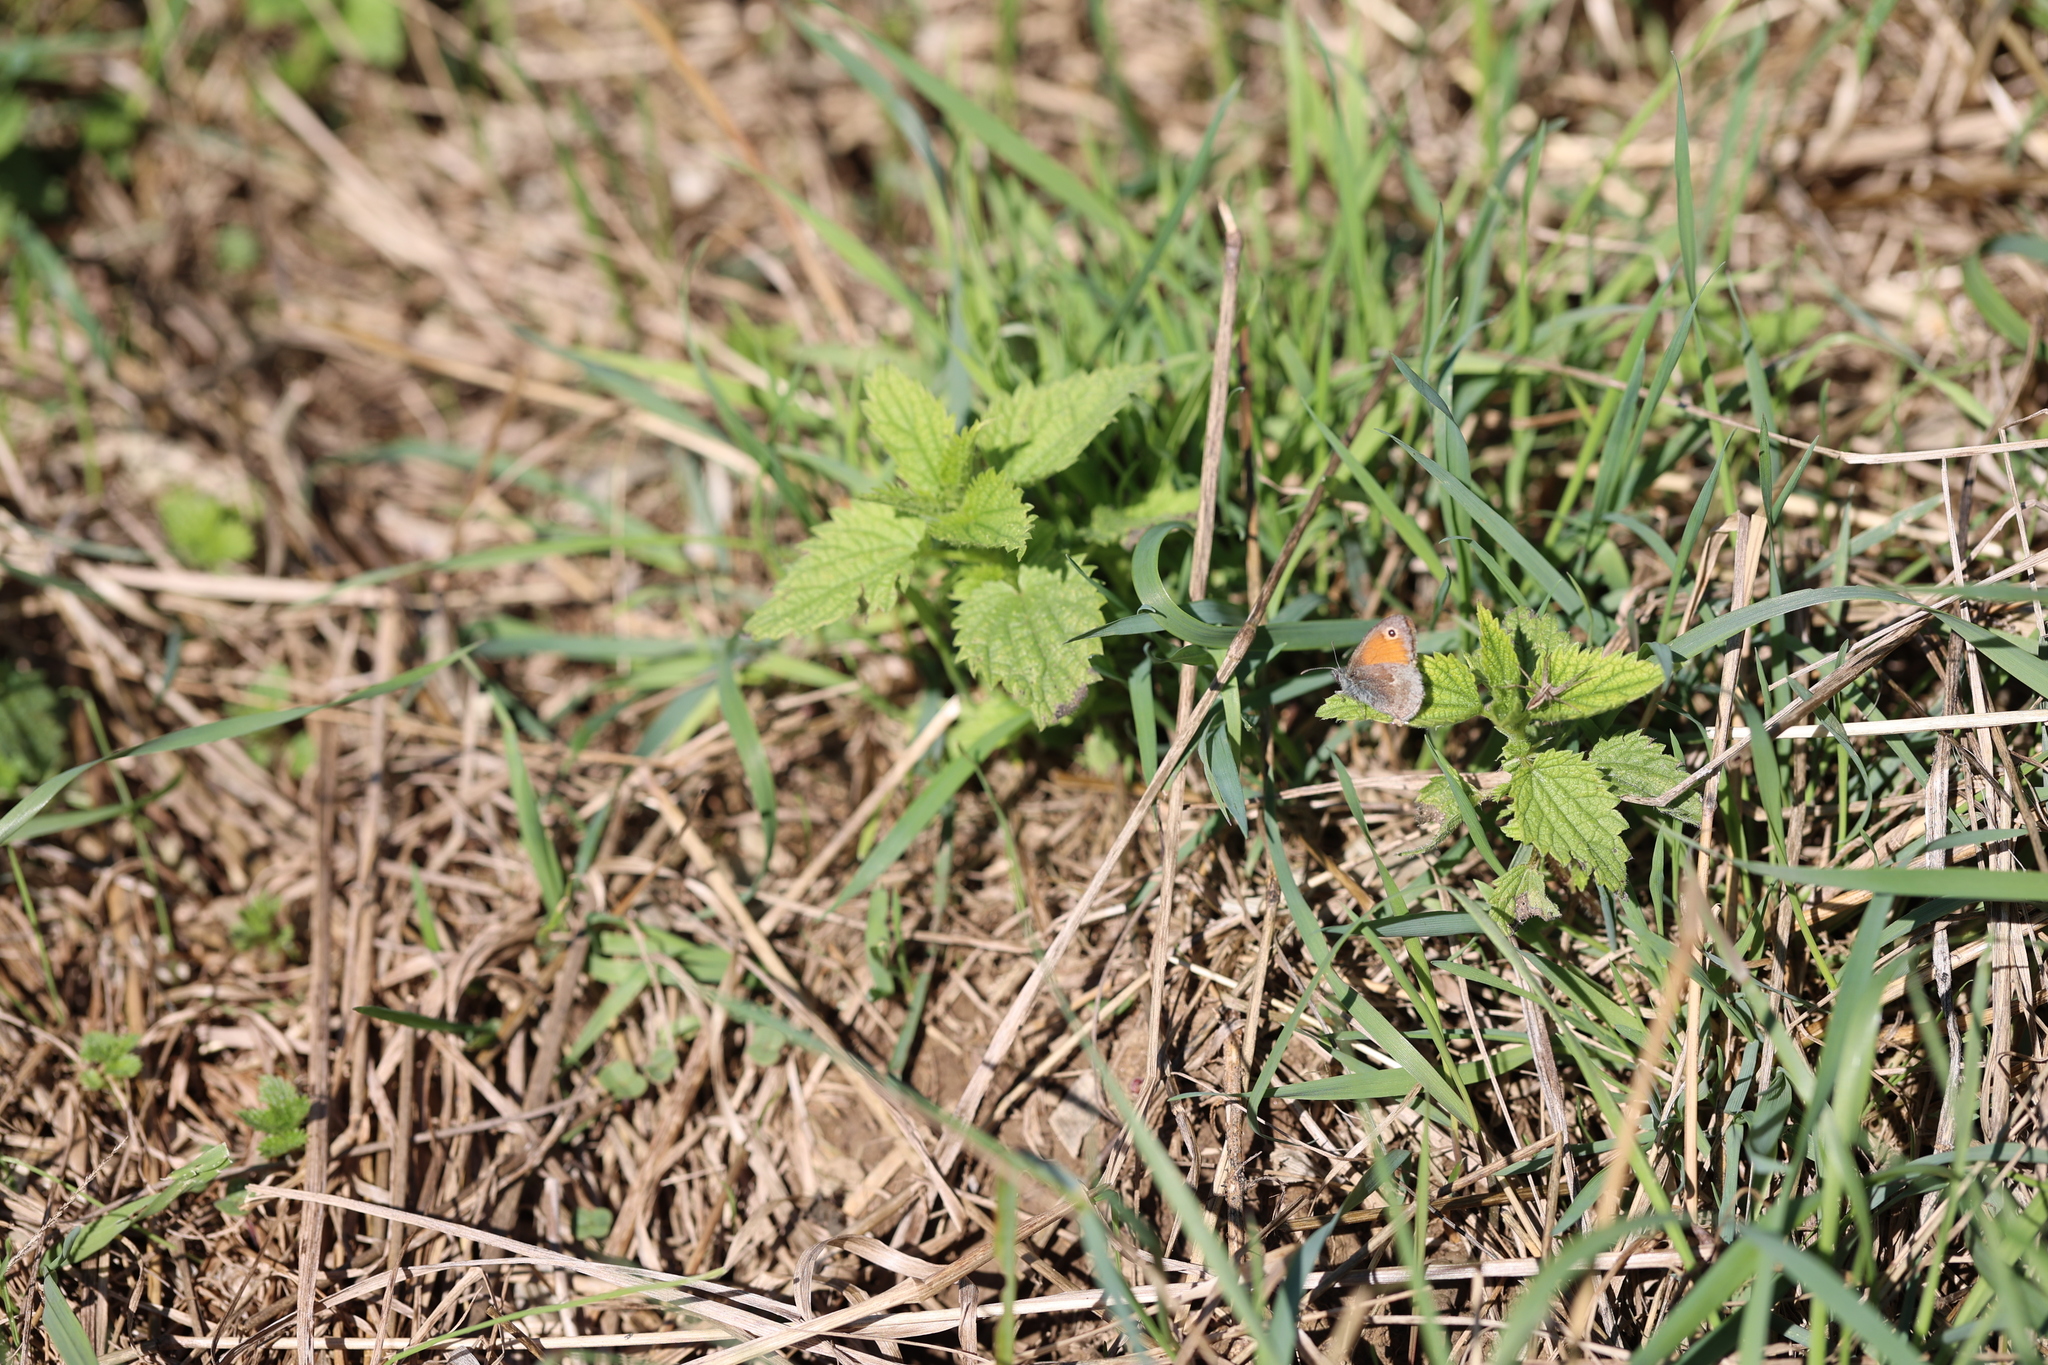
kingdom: Animalia
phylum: Arthropoda
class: Insecta
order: Lepidoptera
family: Nymphalidae
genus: Coenonympha
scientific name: Coenonympha pamphilus
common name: Small heath
